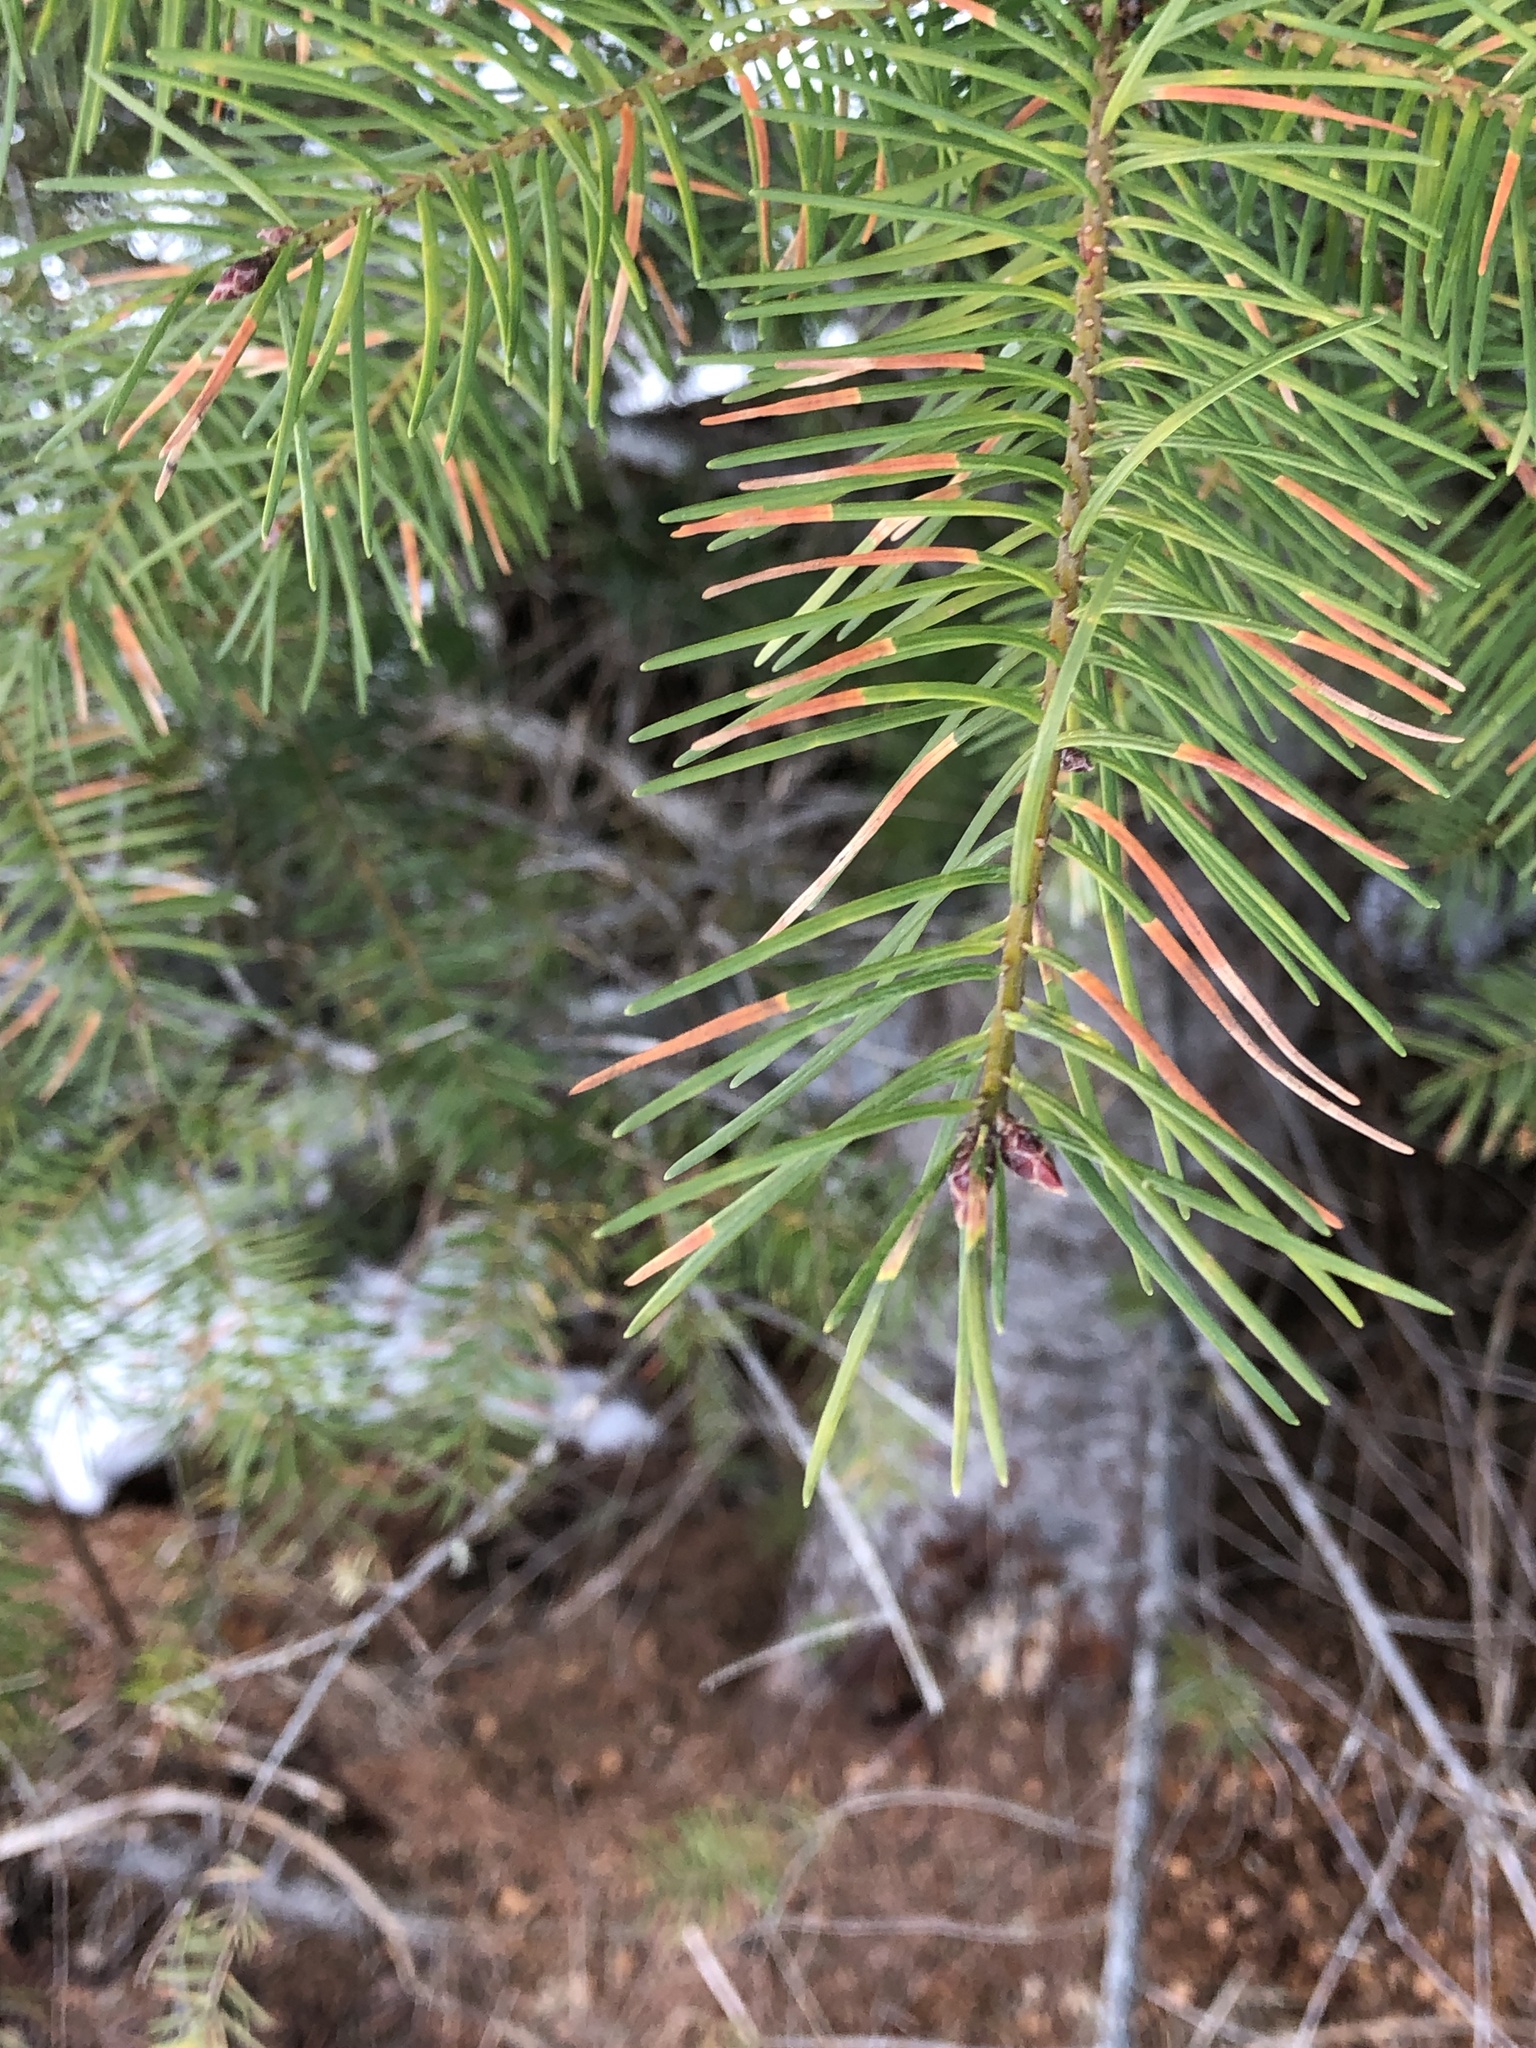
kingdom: Plantae
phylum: Tracheophyta
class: Pinopsida
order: Pinales
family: Pinaceae
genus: Pseudotsuga
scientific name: Pseudotsuga menziesii
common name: Douglas fir
